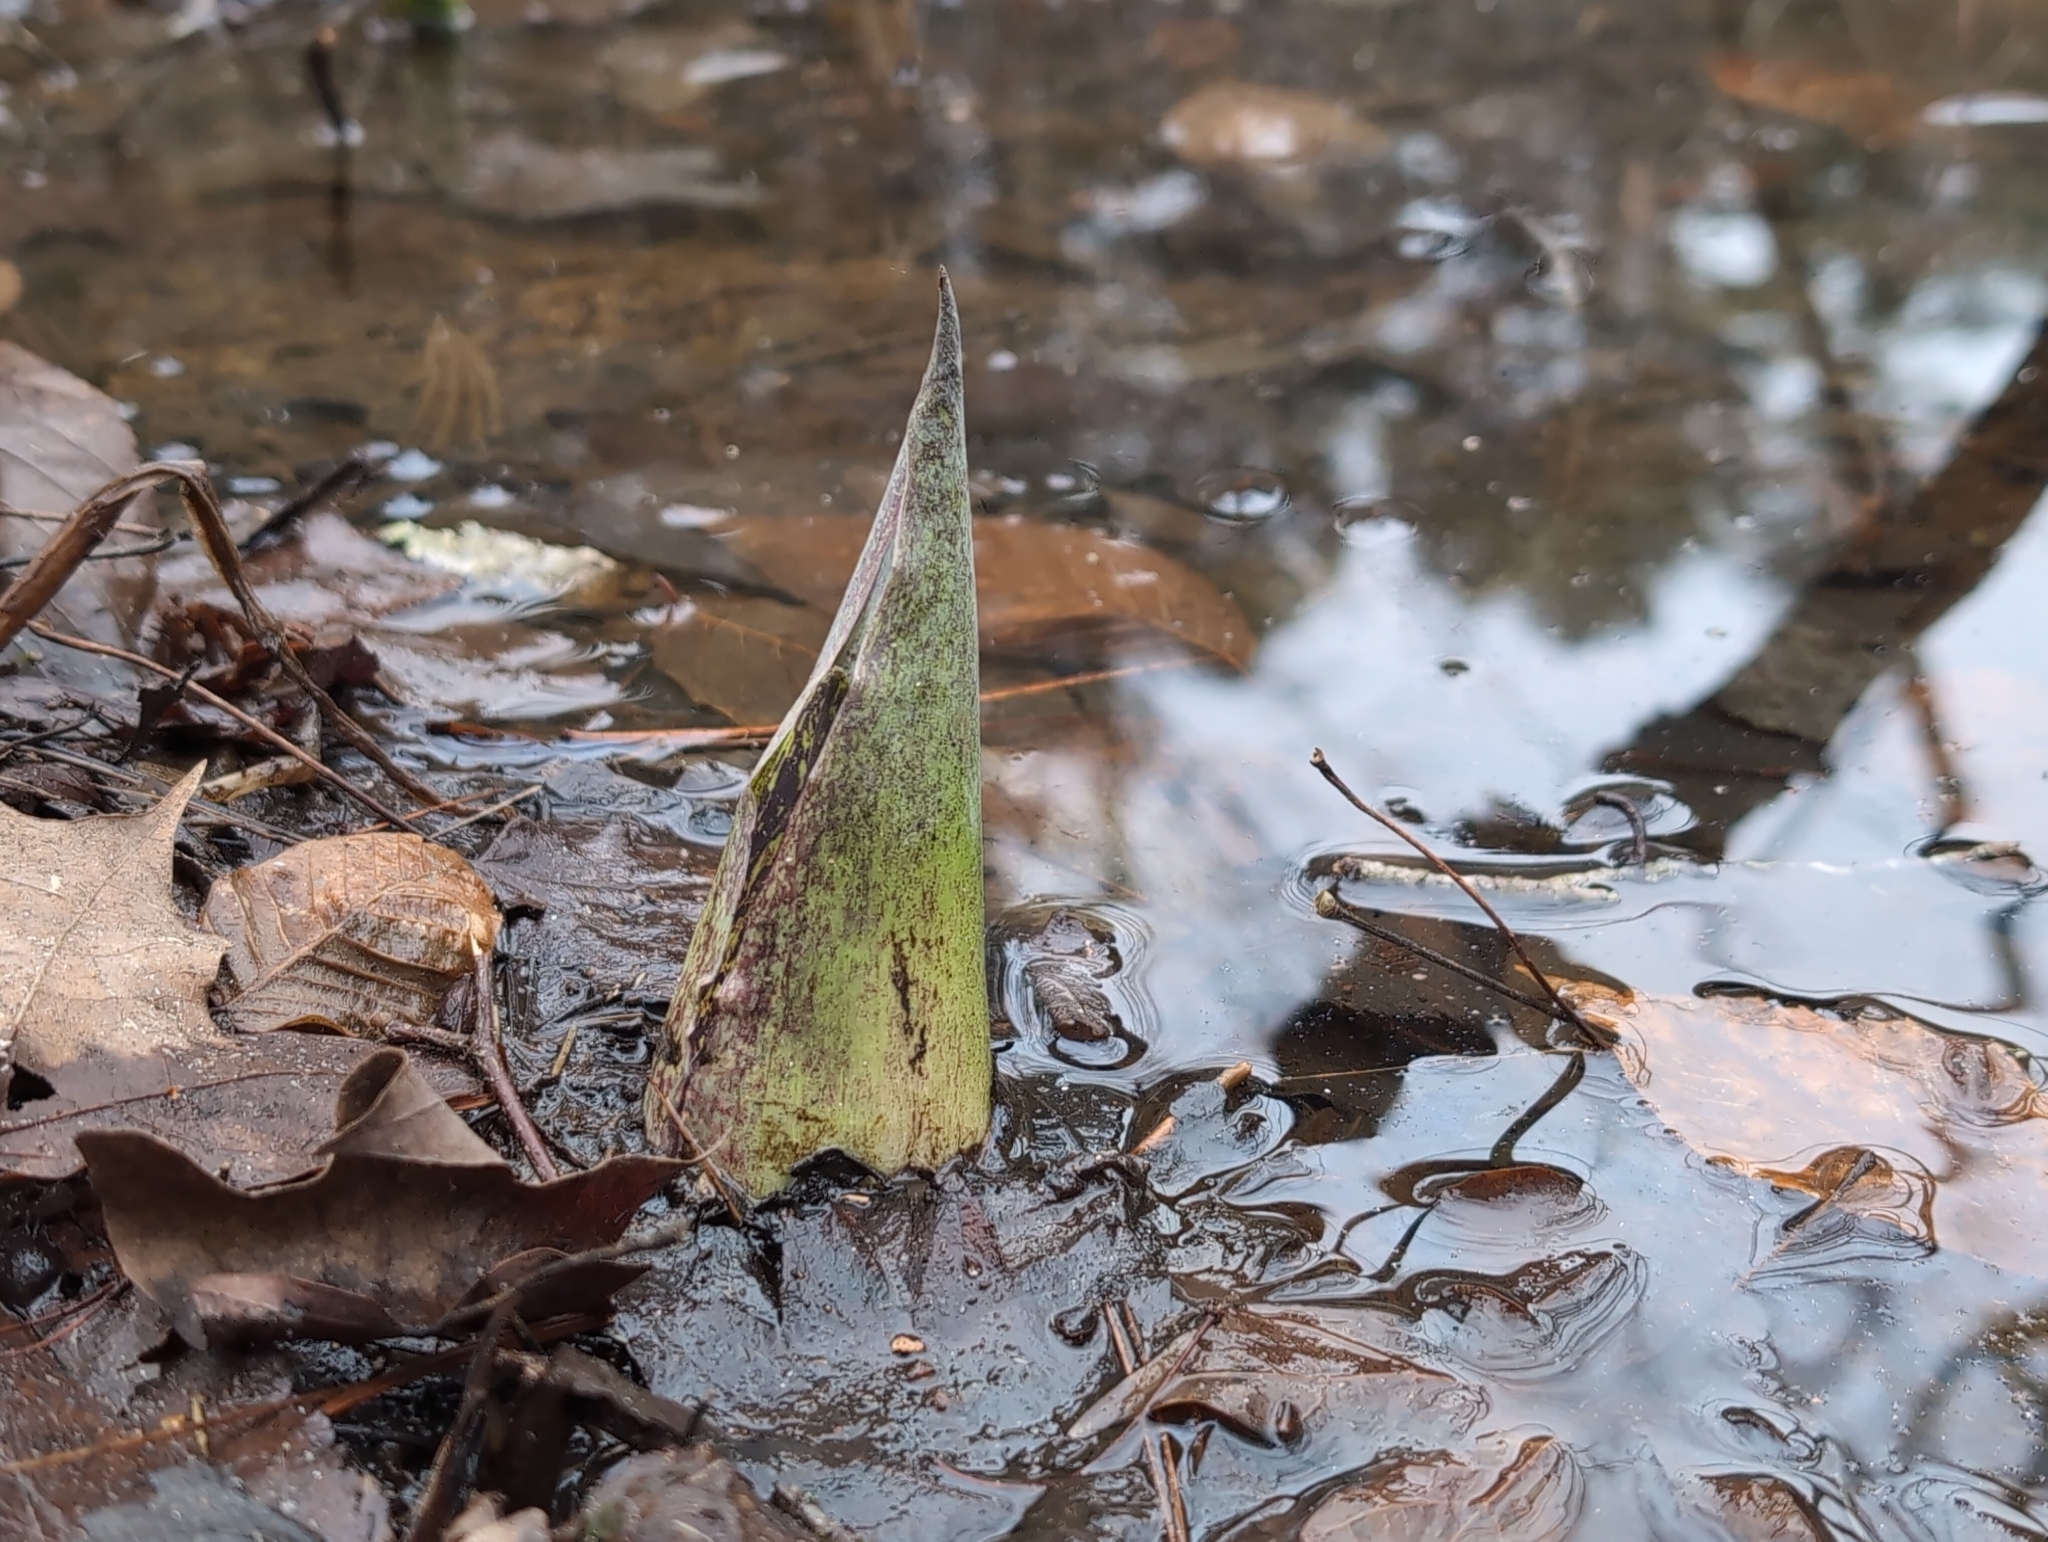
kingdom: Plantae
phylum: Tracheophyta
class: Liliopsida
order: Alismatales
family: Araceae
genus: Symplocarpus
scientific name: Symplocarpus foetidus
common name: Eastern skunk cabbage
